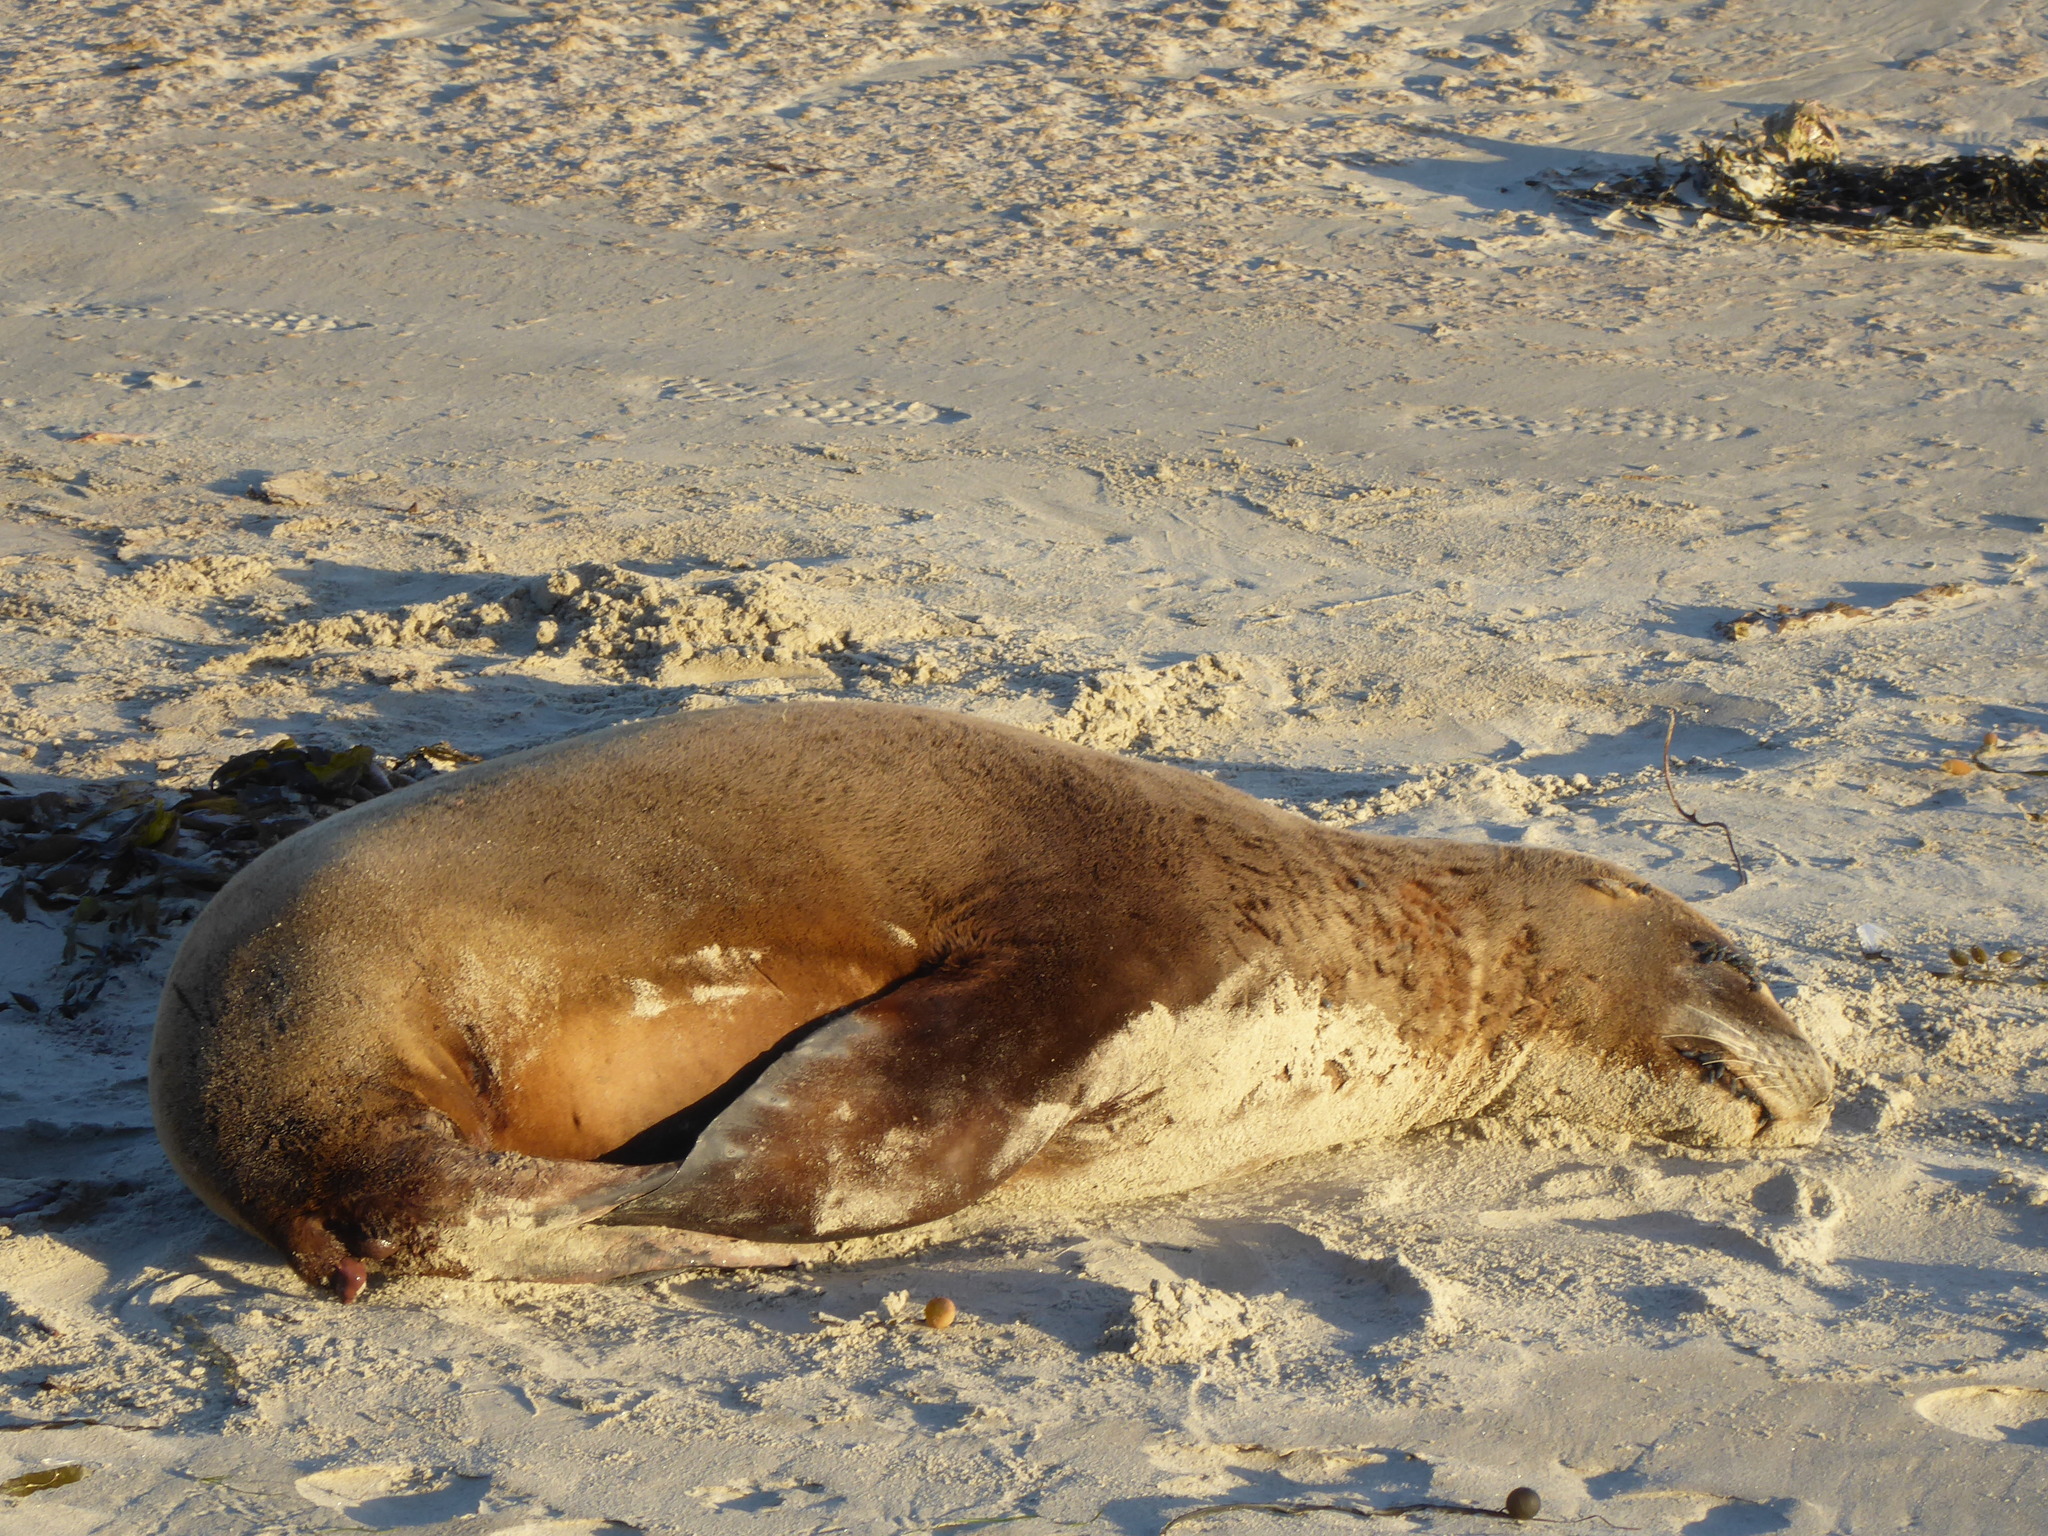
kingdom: Animalia
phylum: Chordata
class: Mammalia
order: Carnivora
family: Otariidae
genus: Phocarctos
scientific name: Phocarctos hookeri
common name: New zealand sea lion
